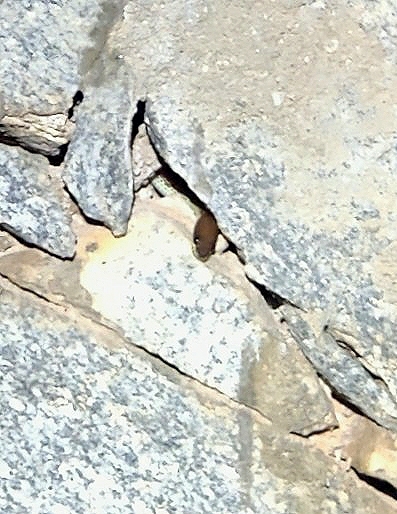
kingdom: Animalia
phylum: Chordata
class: Squamata
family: Colubridae
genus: Lycodon
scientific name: Lycodon fasciolatus
